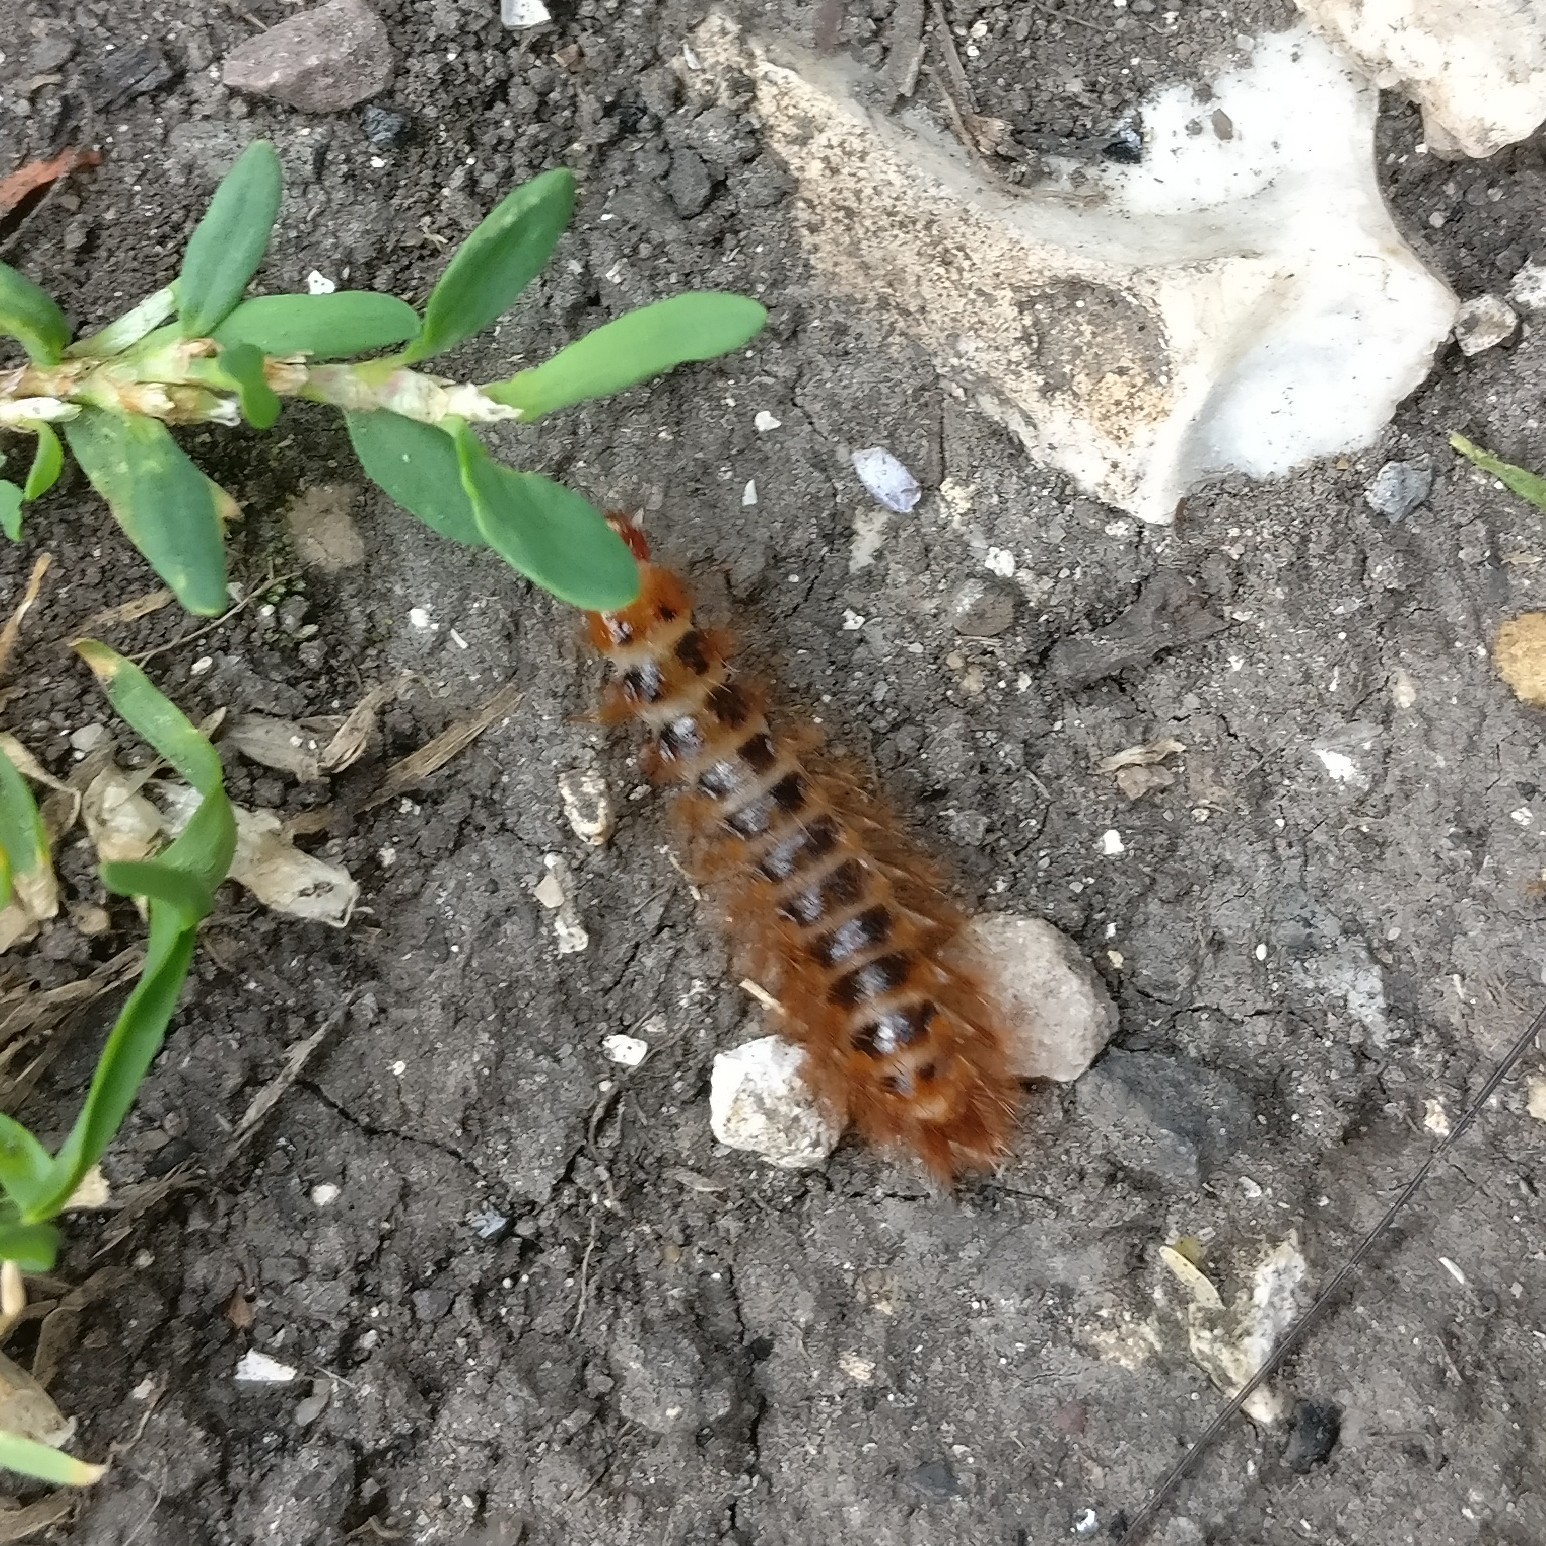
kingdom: Animalia
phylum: Arthropoda
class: Insecta
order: Coleoptera
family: Drilidae
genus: Drilus
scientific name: Drilus flavescens
